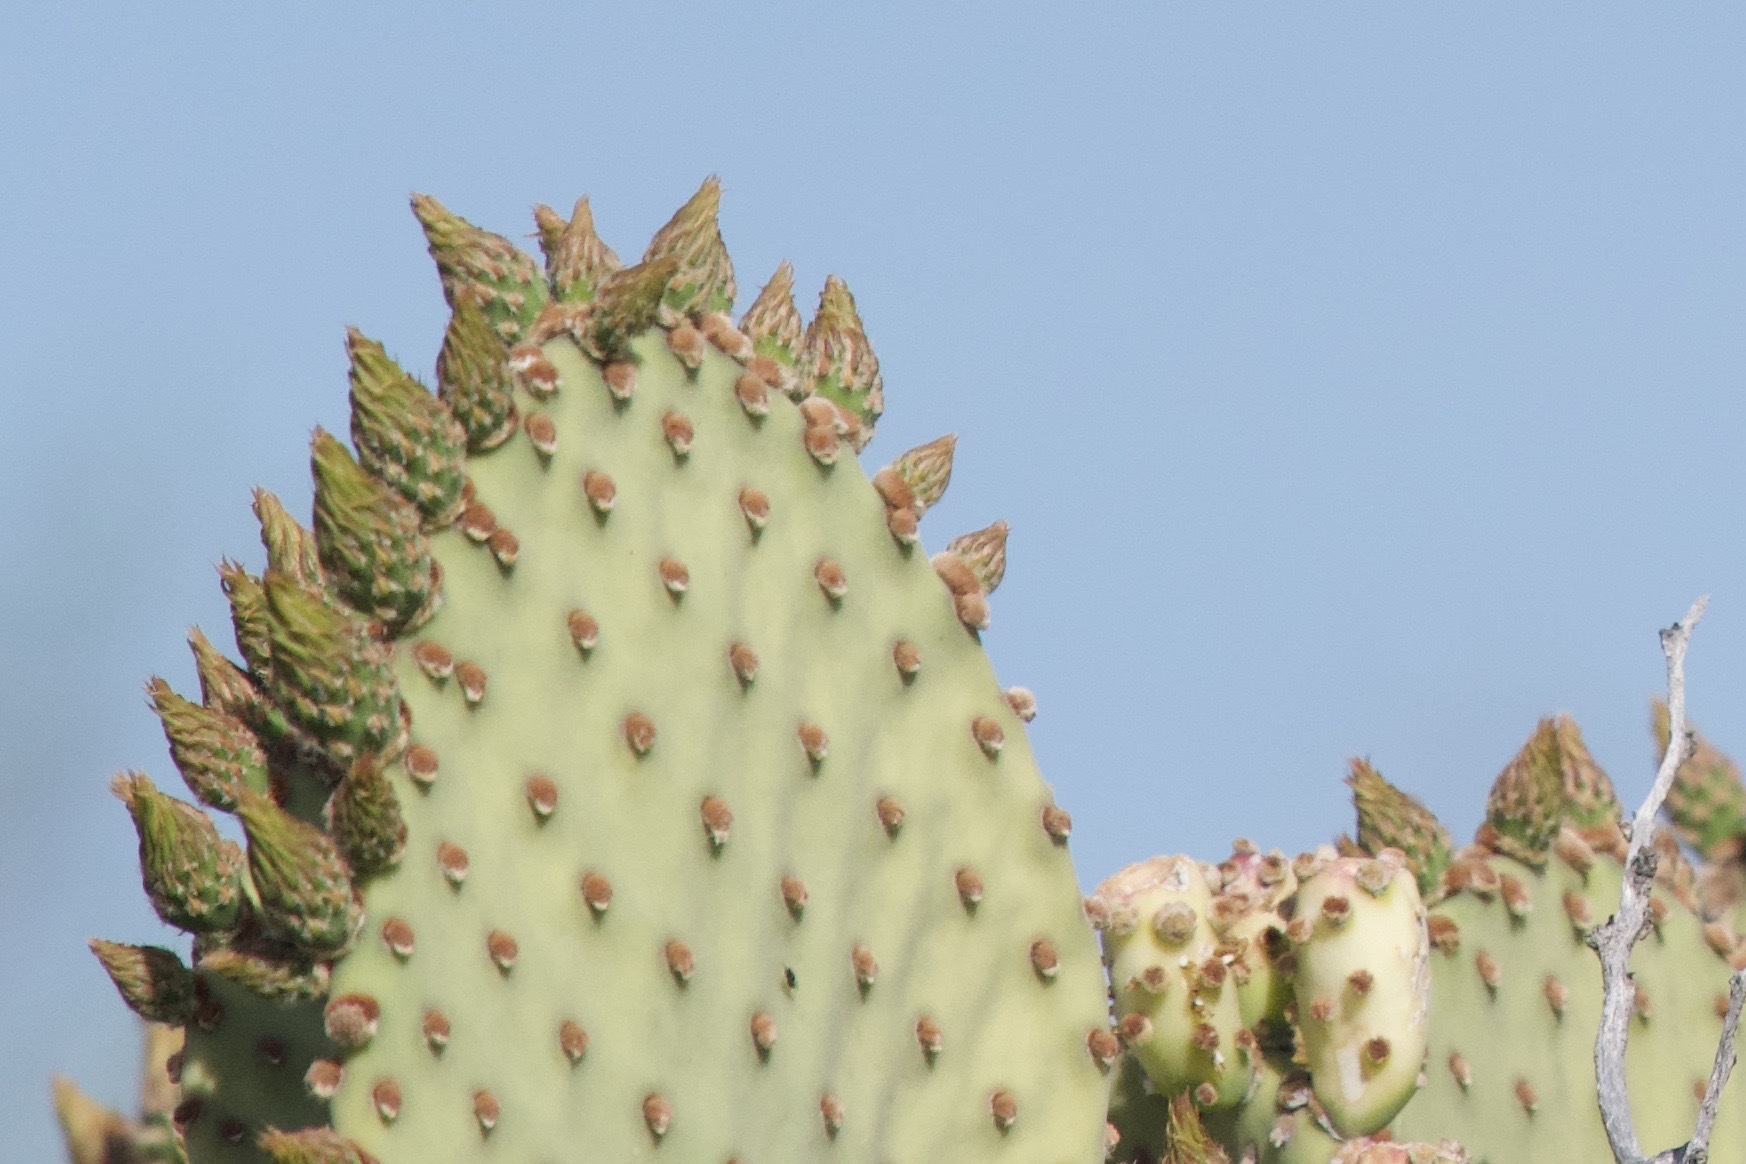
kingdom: Plantae
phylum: Tracheophyta
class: Magnoliopsida
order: Caryophyllales
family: Cactaceae
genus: Opuntia
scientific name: Opuntia rufida
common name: Blind pricklypear
